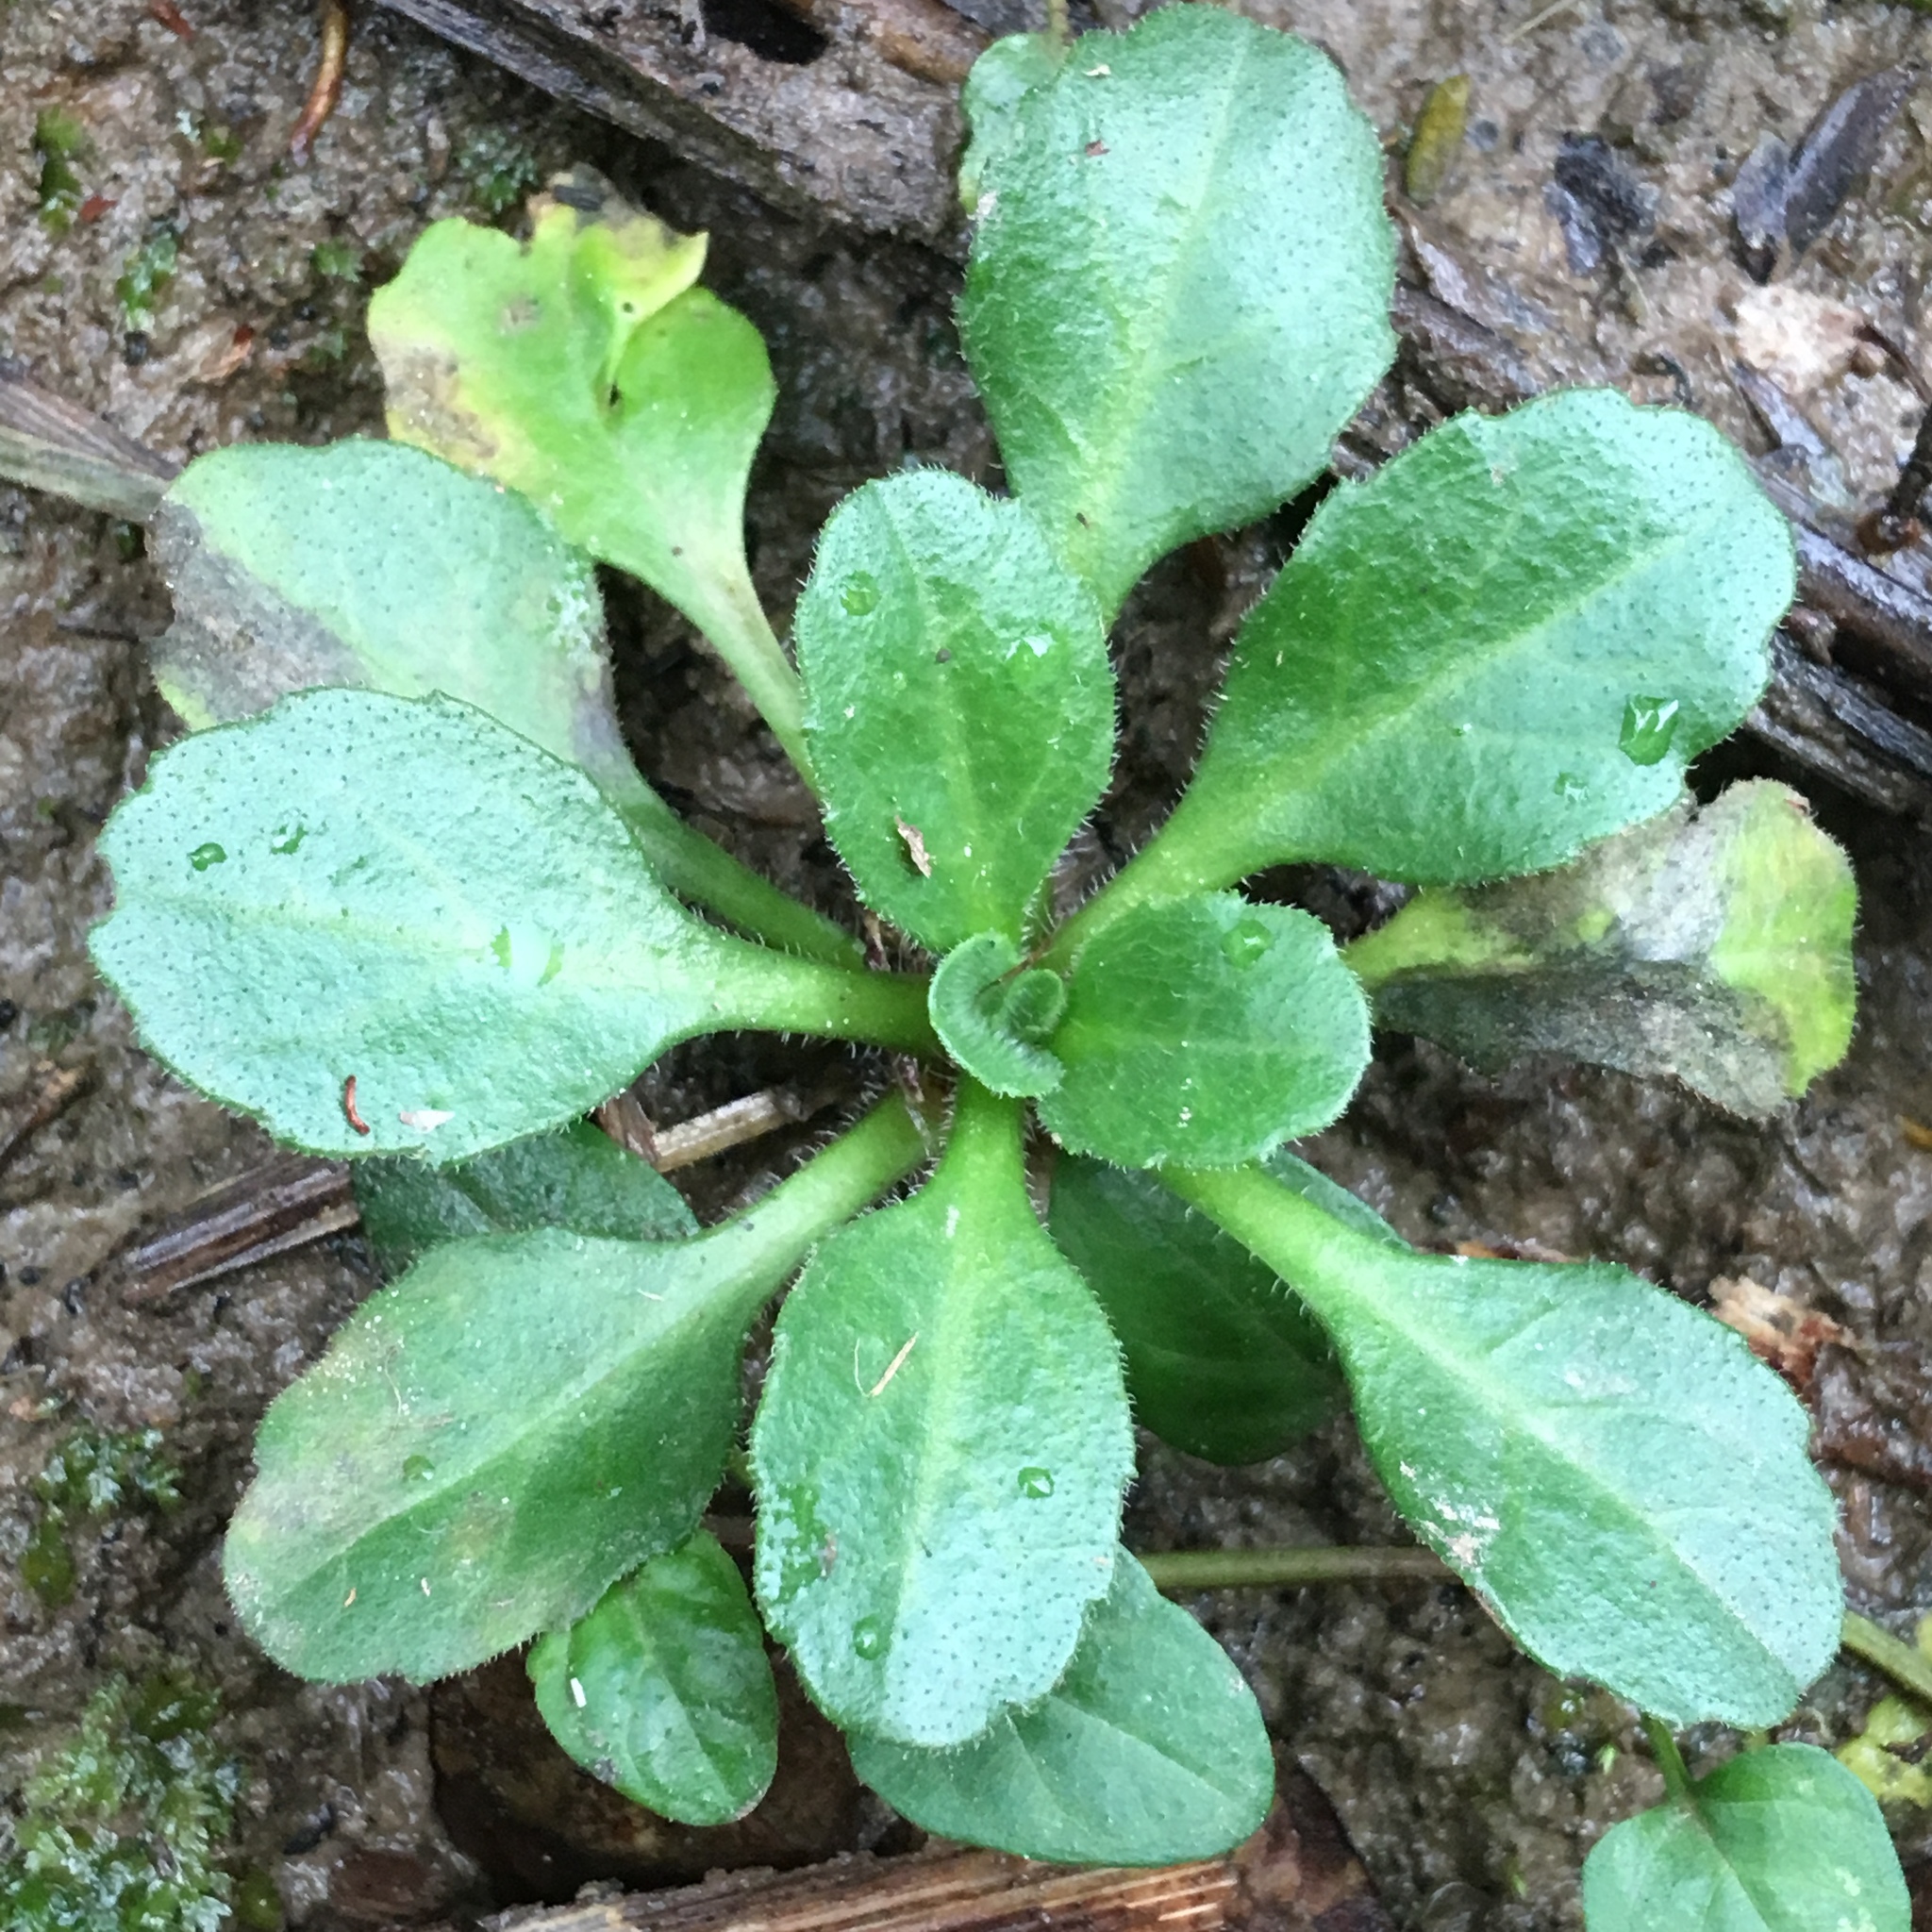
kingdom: Plantae
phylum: Tracheophyta
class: Magnoliopsida
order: Asterales
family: Asteraceae
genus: Bellis
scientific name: Bellis perennis
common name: Lawndaisy
